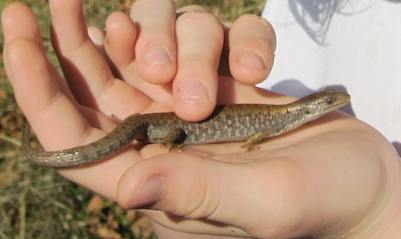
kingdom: Animalia
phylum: Chordata
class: Squamata
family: Anguidae
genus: Elgaria
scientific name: Elgaria coerulea
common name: Northern alligator lizard
